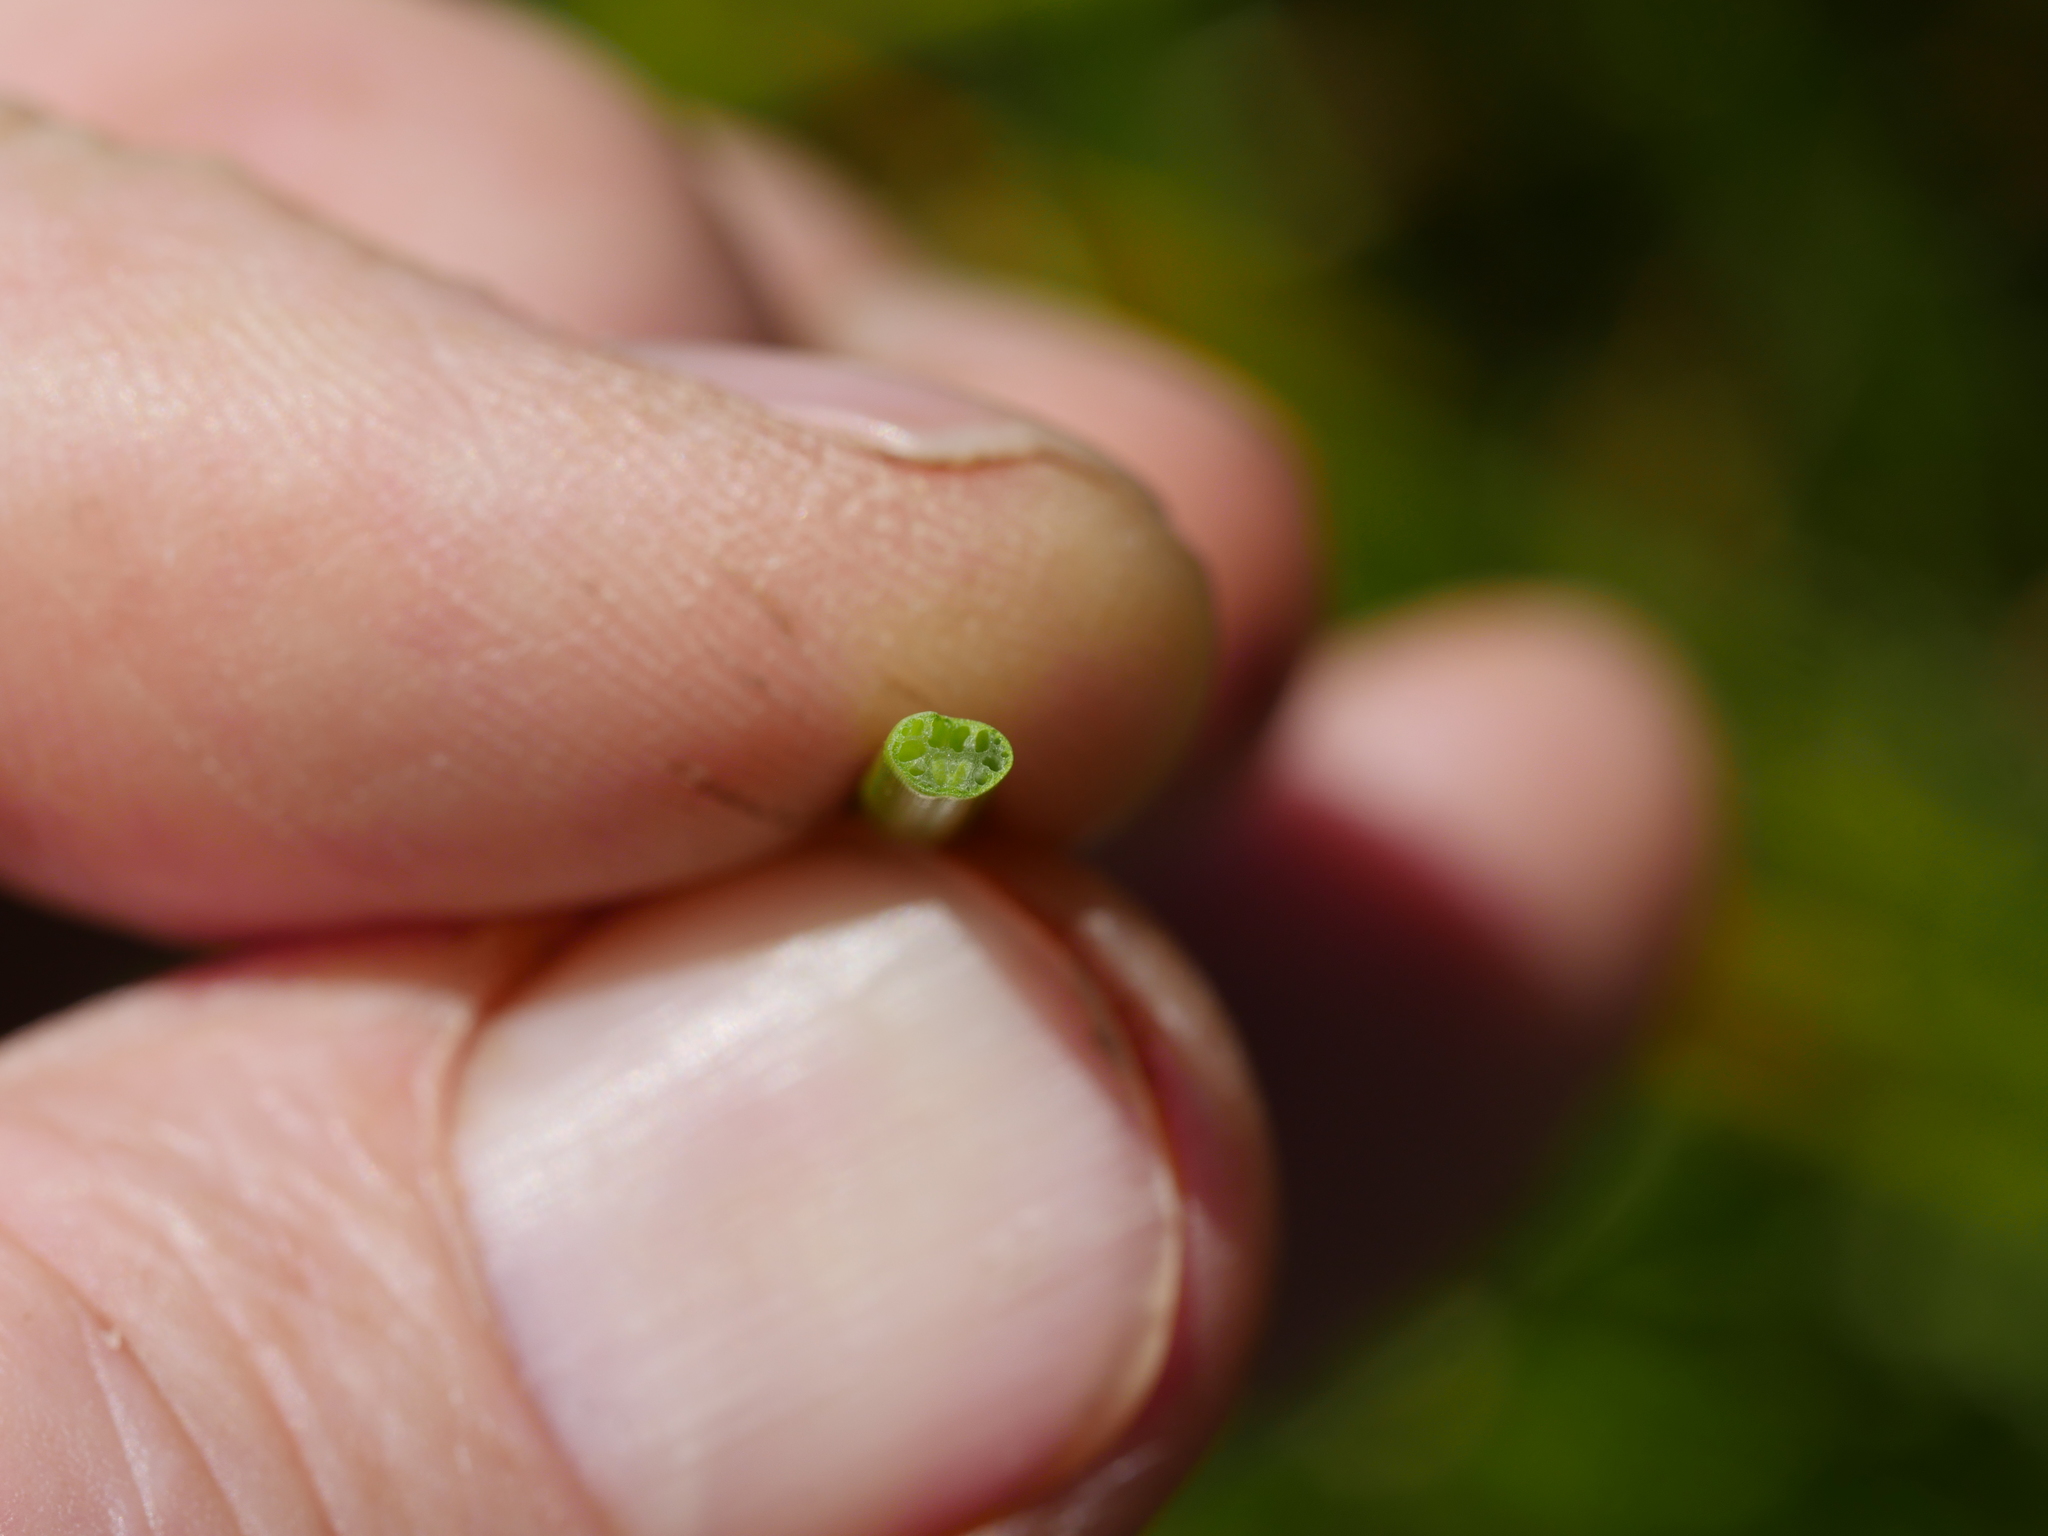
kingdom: Plantae
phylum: Tracheophyta
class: Liliopsida
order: Poales
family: Cyperaceae
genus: Isolepis
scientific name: Isolepis prolifera
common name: Proliferating bulrush
